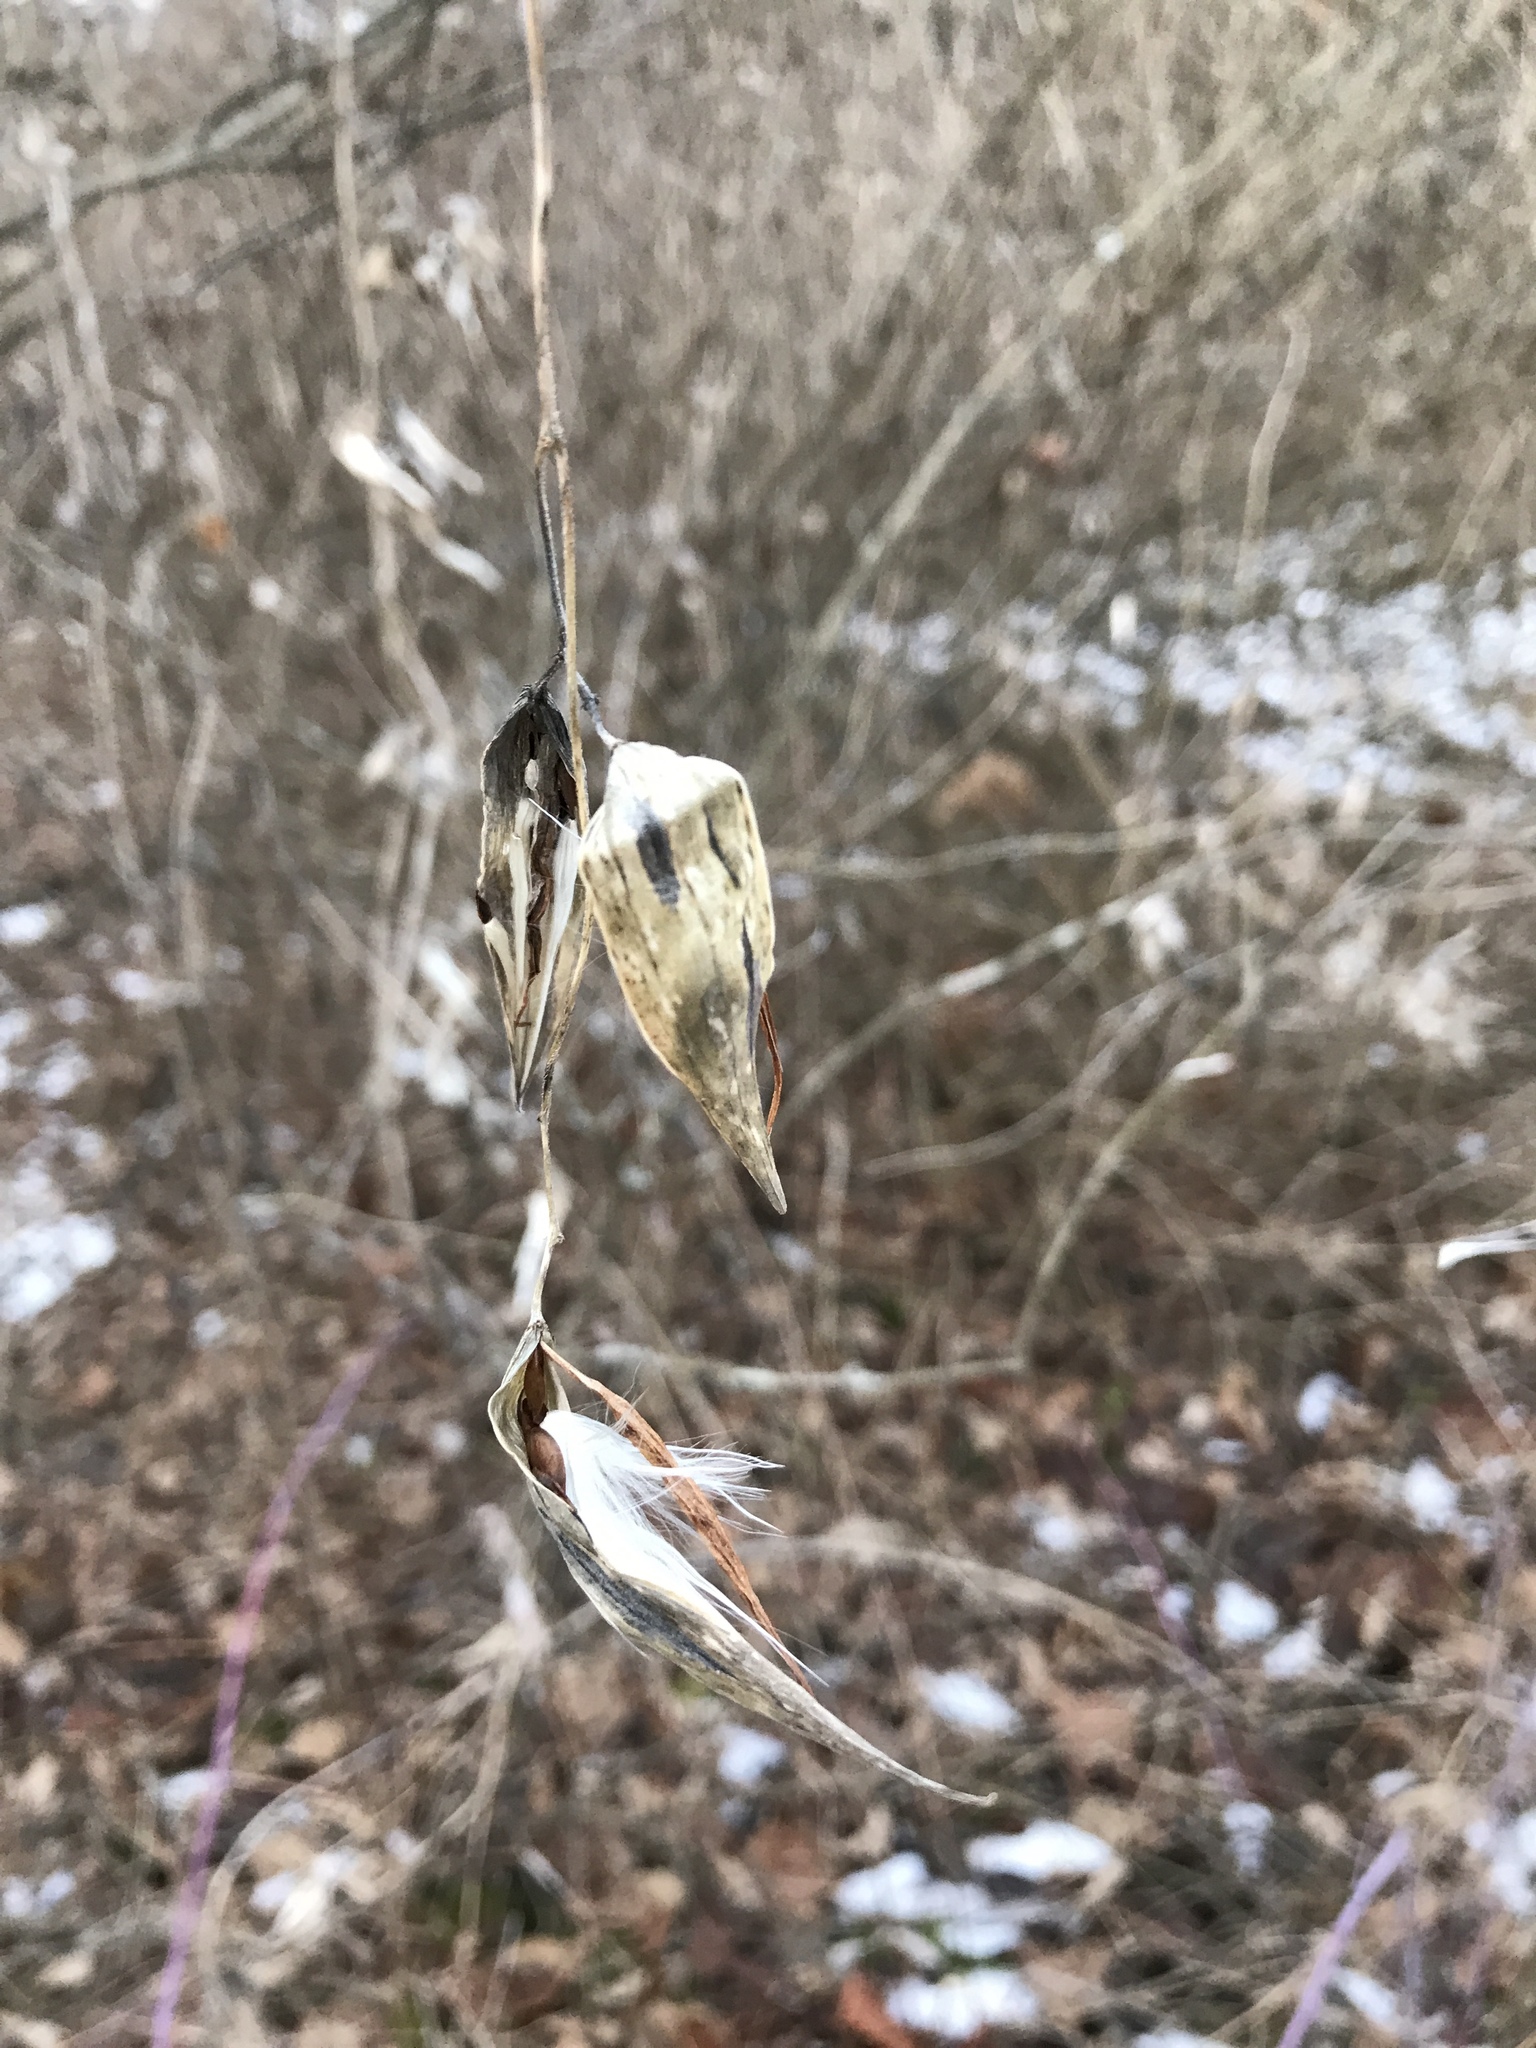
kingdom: Plantae
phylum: Tracheophyta
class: Magnoliopsida
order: Gentianales
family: Apocynaceae
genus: Vincetoxicum
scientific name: Vincetoxicum rossicum
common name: Dog-strangling vine
